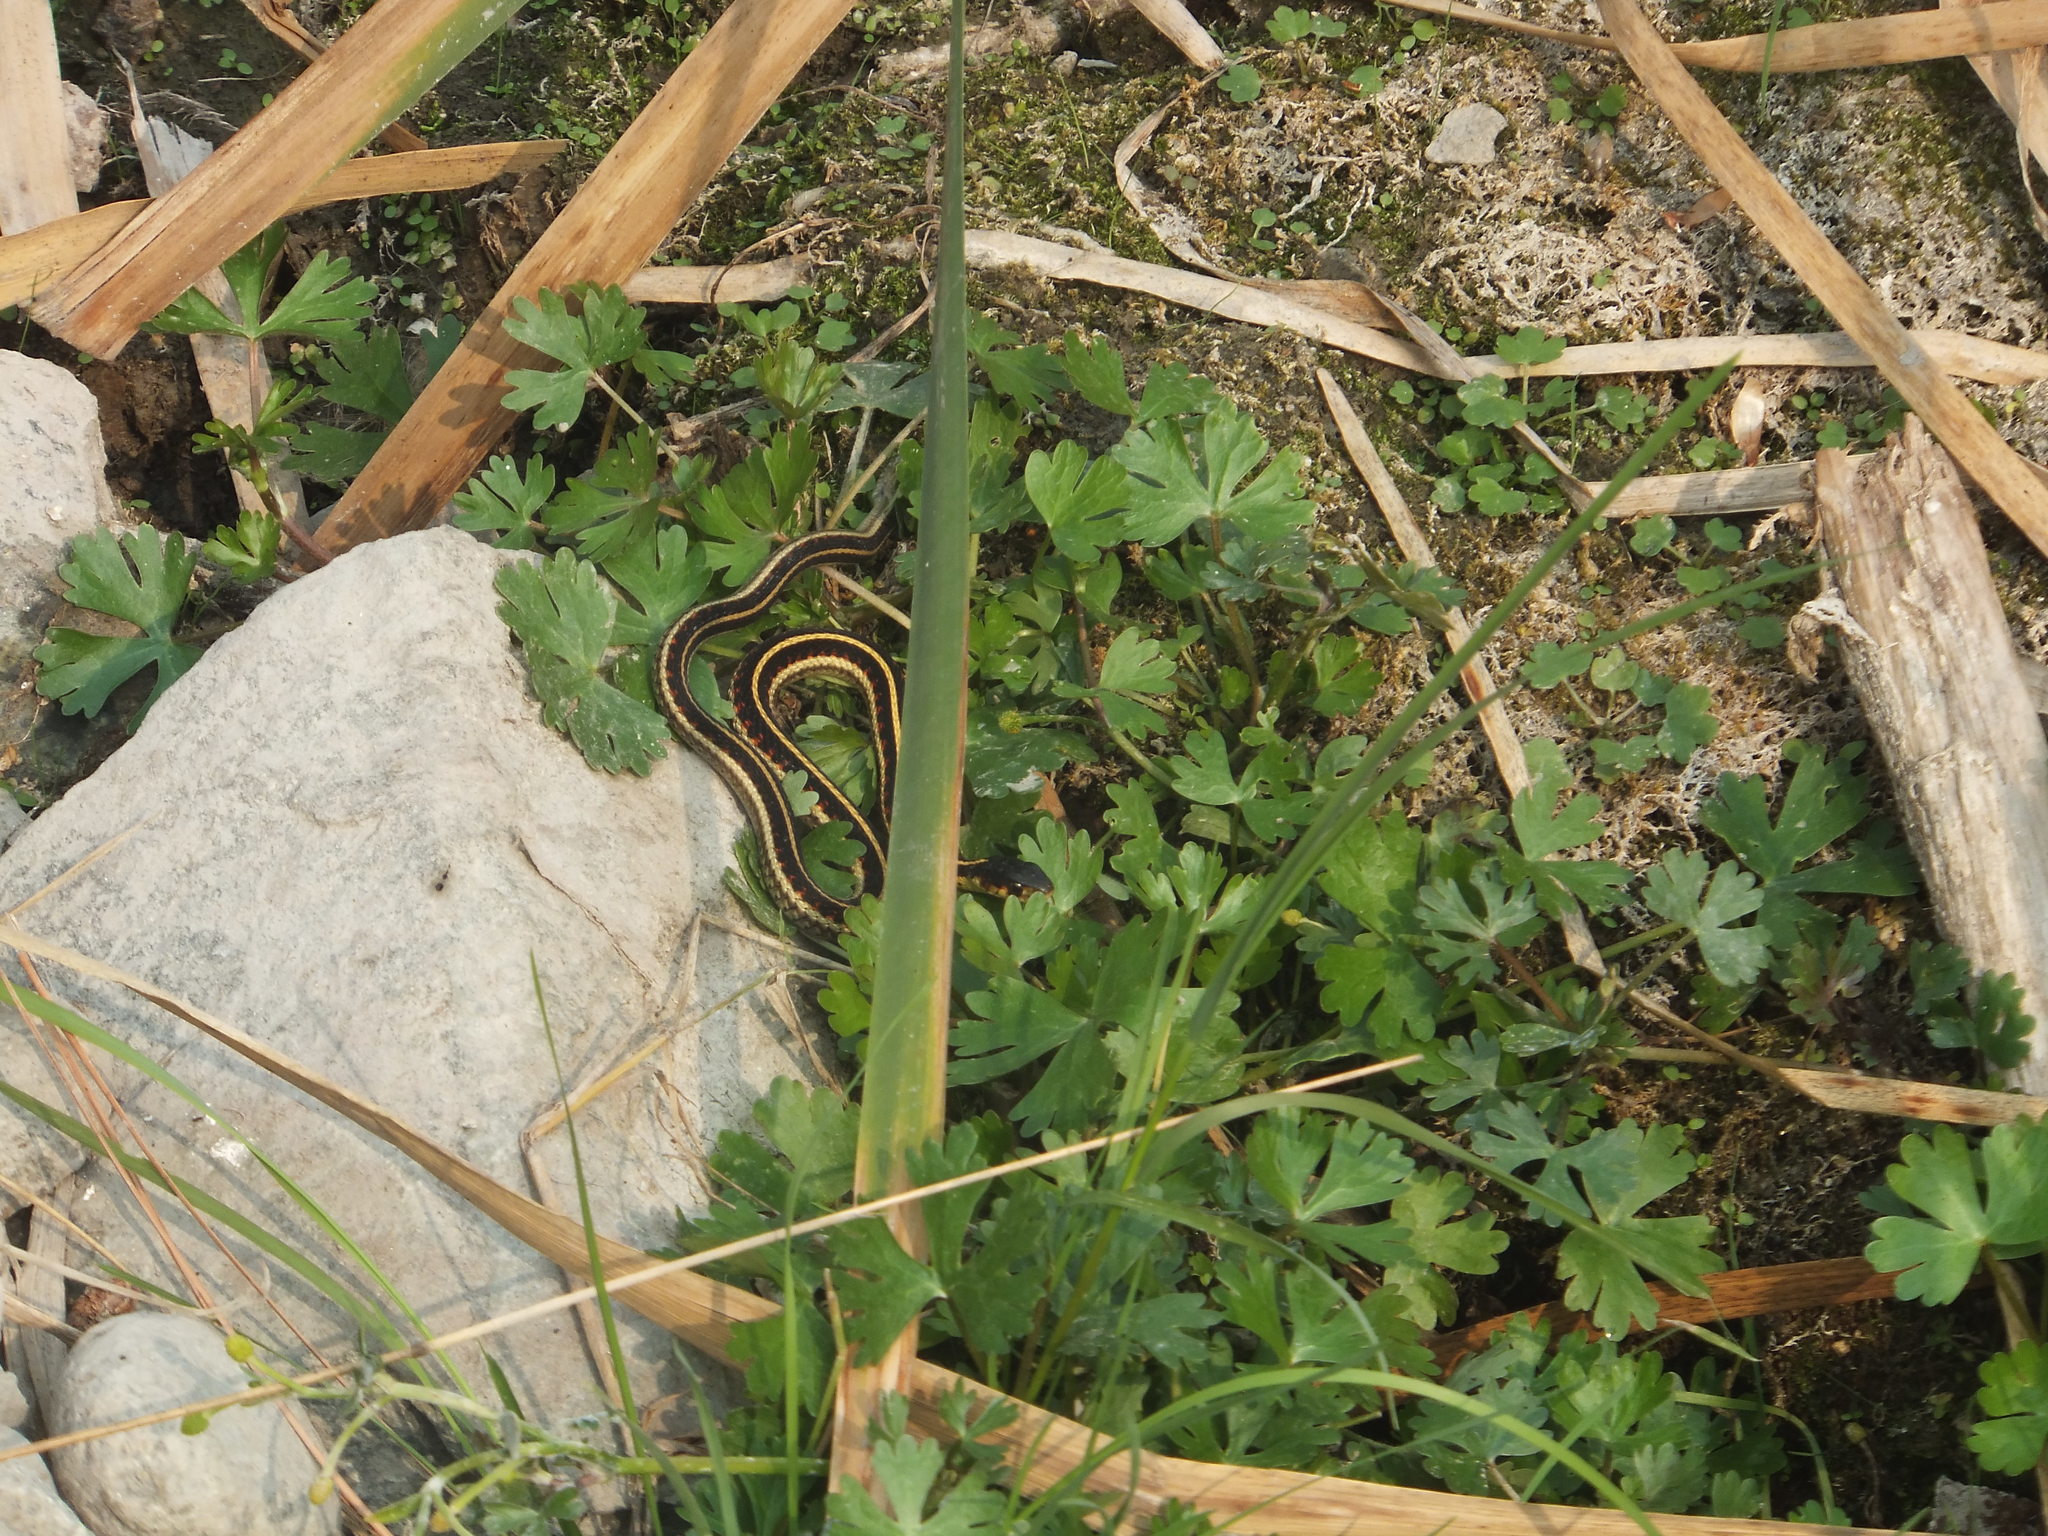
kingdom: Animalia
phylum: Chordata
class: Squamata
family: Colubridae
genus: Thamnophis
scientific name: Thamnophis sirtalis
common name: Common garter snake
